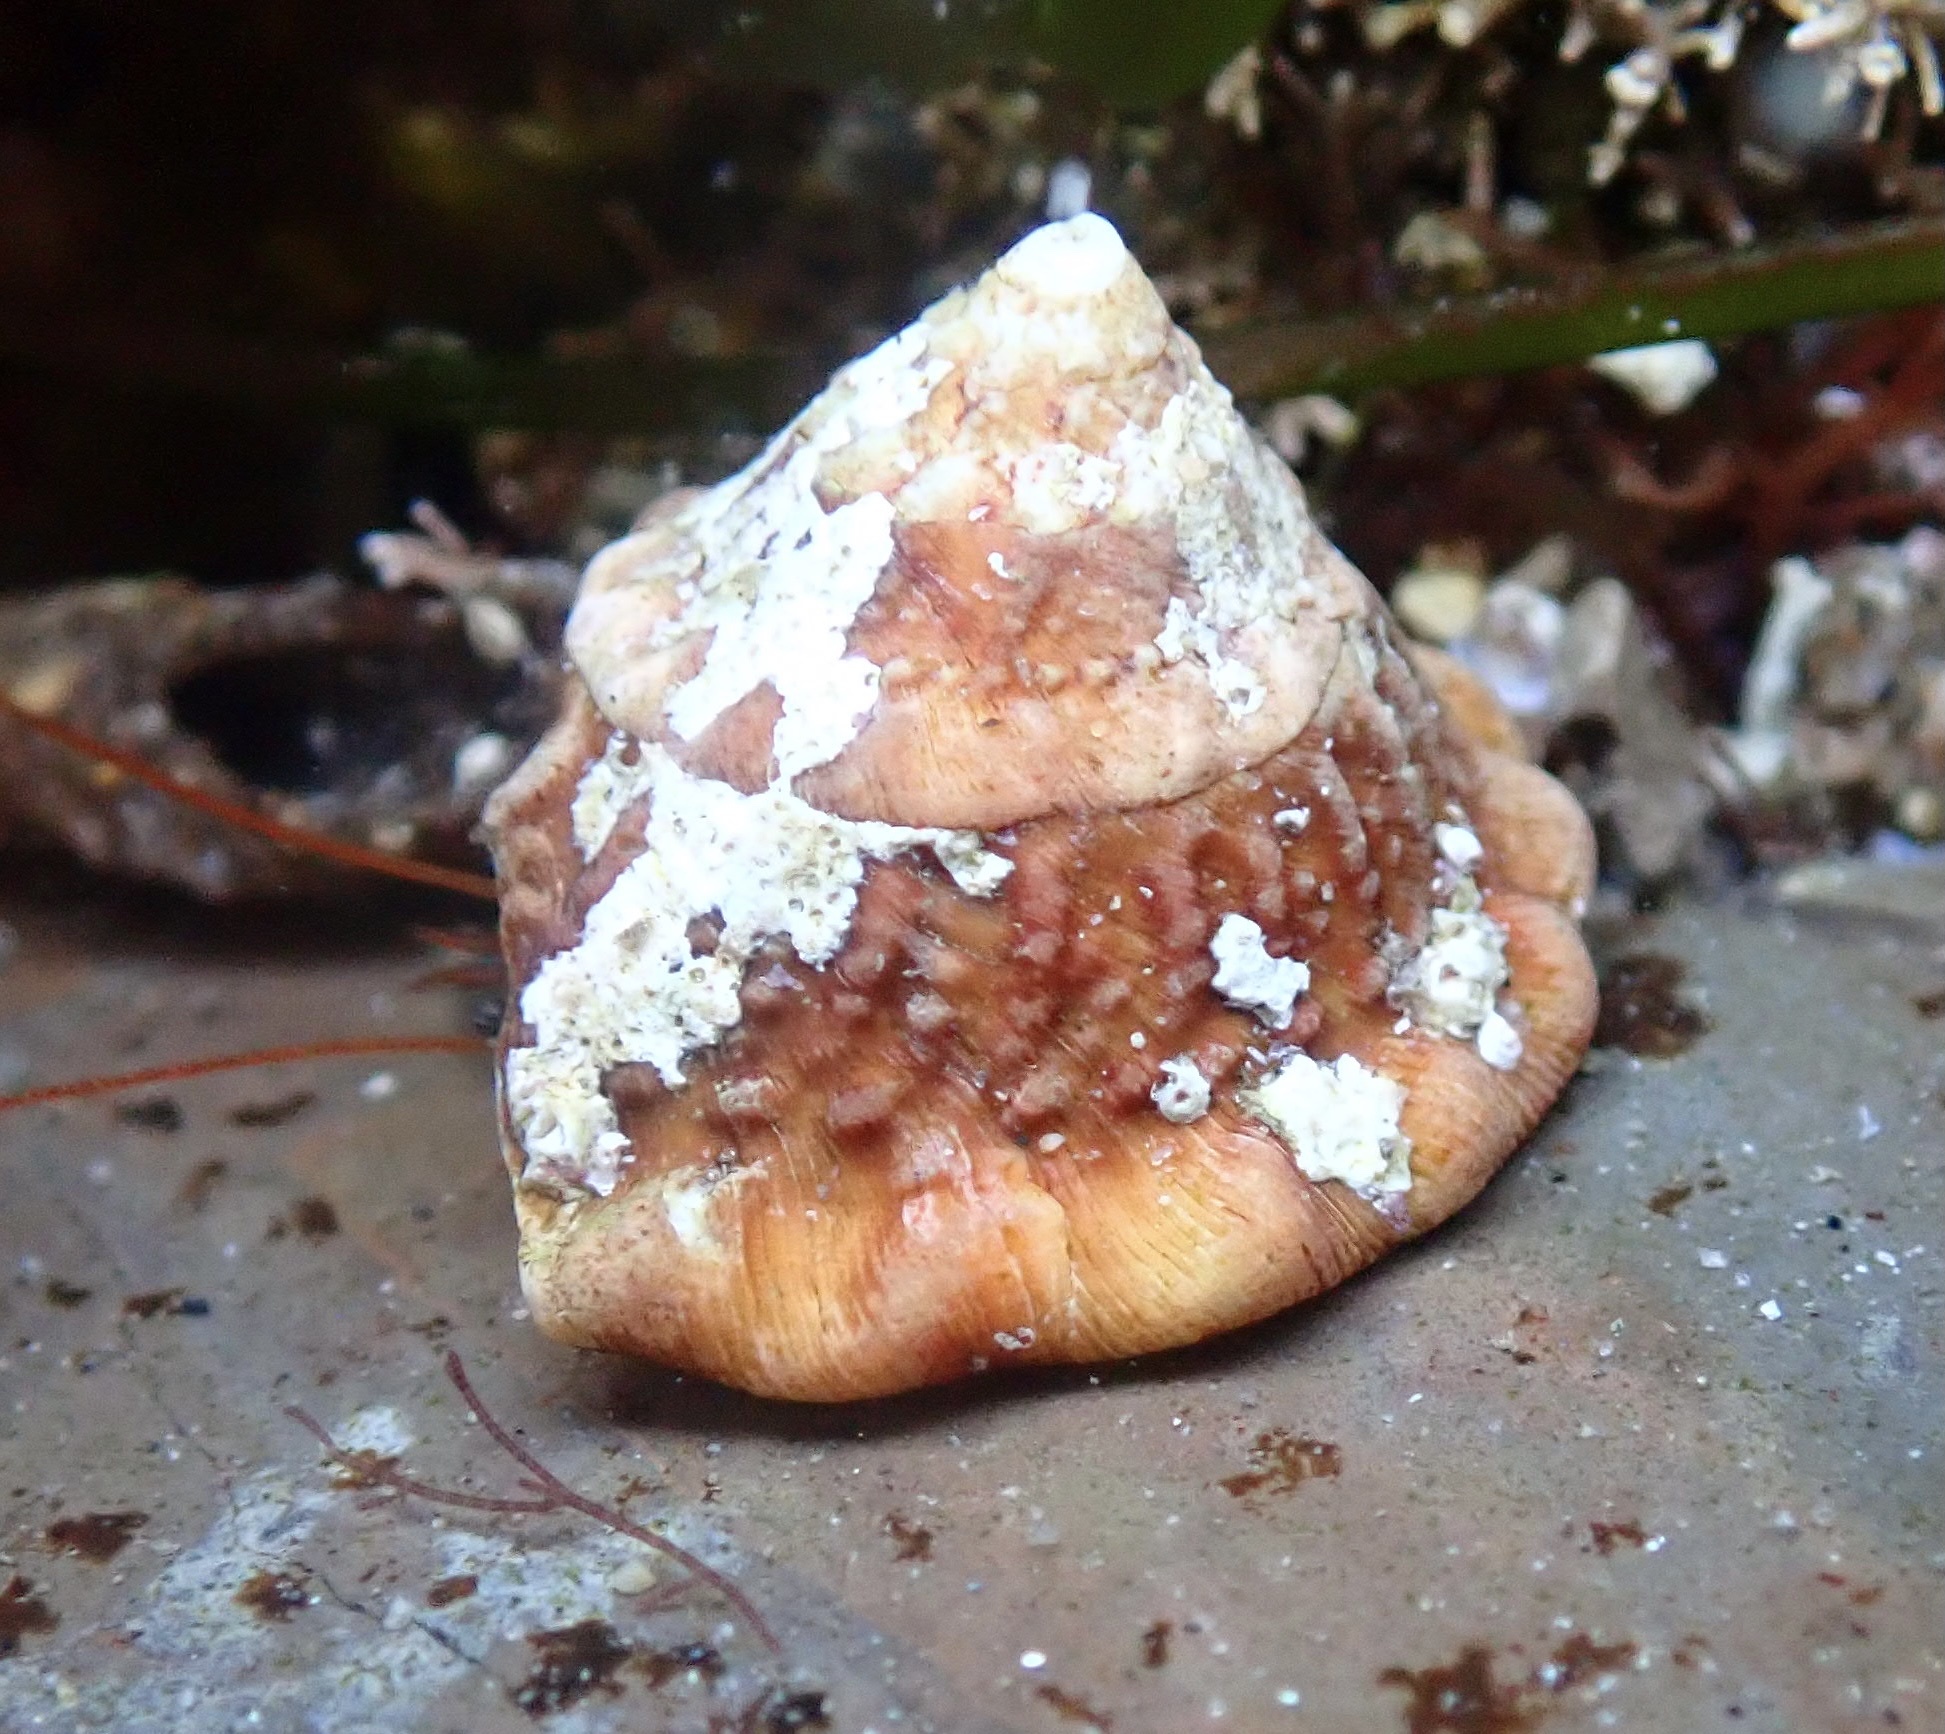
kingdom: Animalia
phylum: Mollusca
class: Gastropoda
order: Trochida
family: Turbinidae
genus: Megastraea
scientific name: Megastraea undosa
